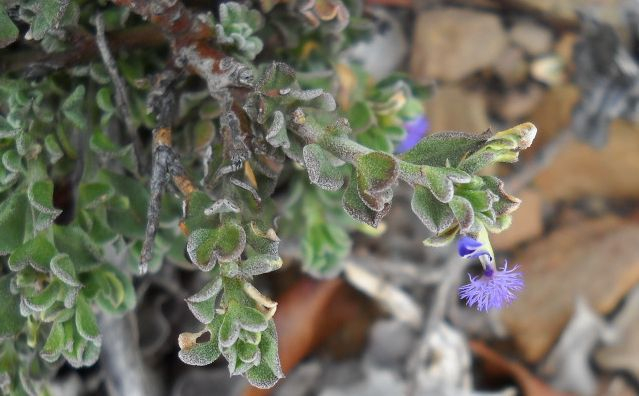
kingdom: Plantae
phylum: Tracheophyta
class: Magnoliopsida
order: Fabales
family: Polygalaceae
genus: Polygala
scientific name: Polygala asbestina
